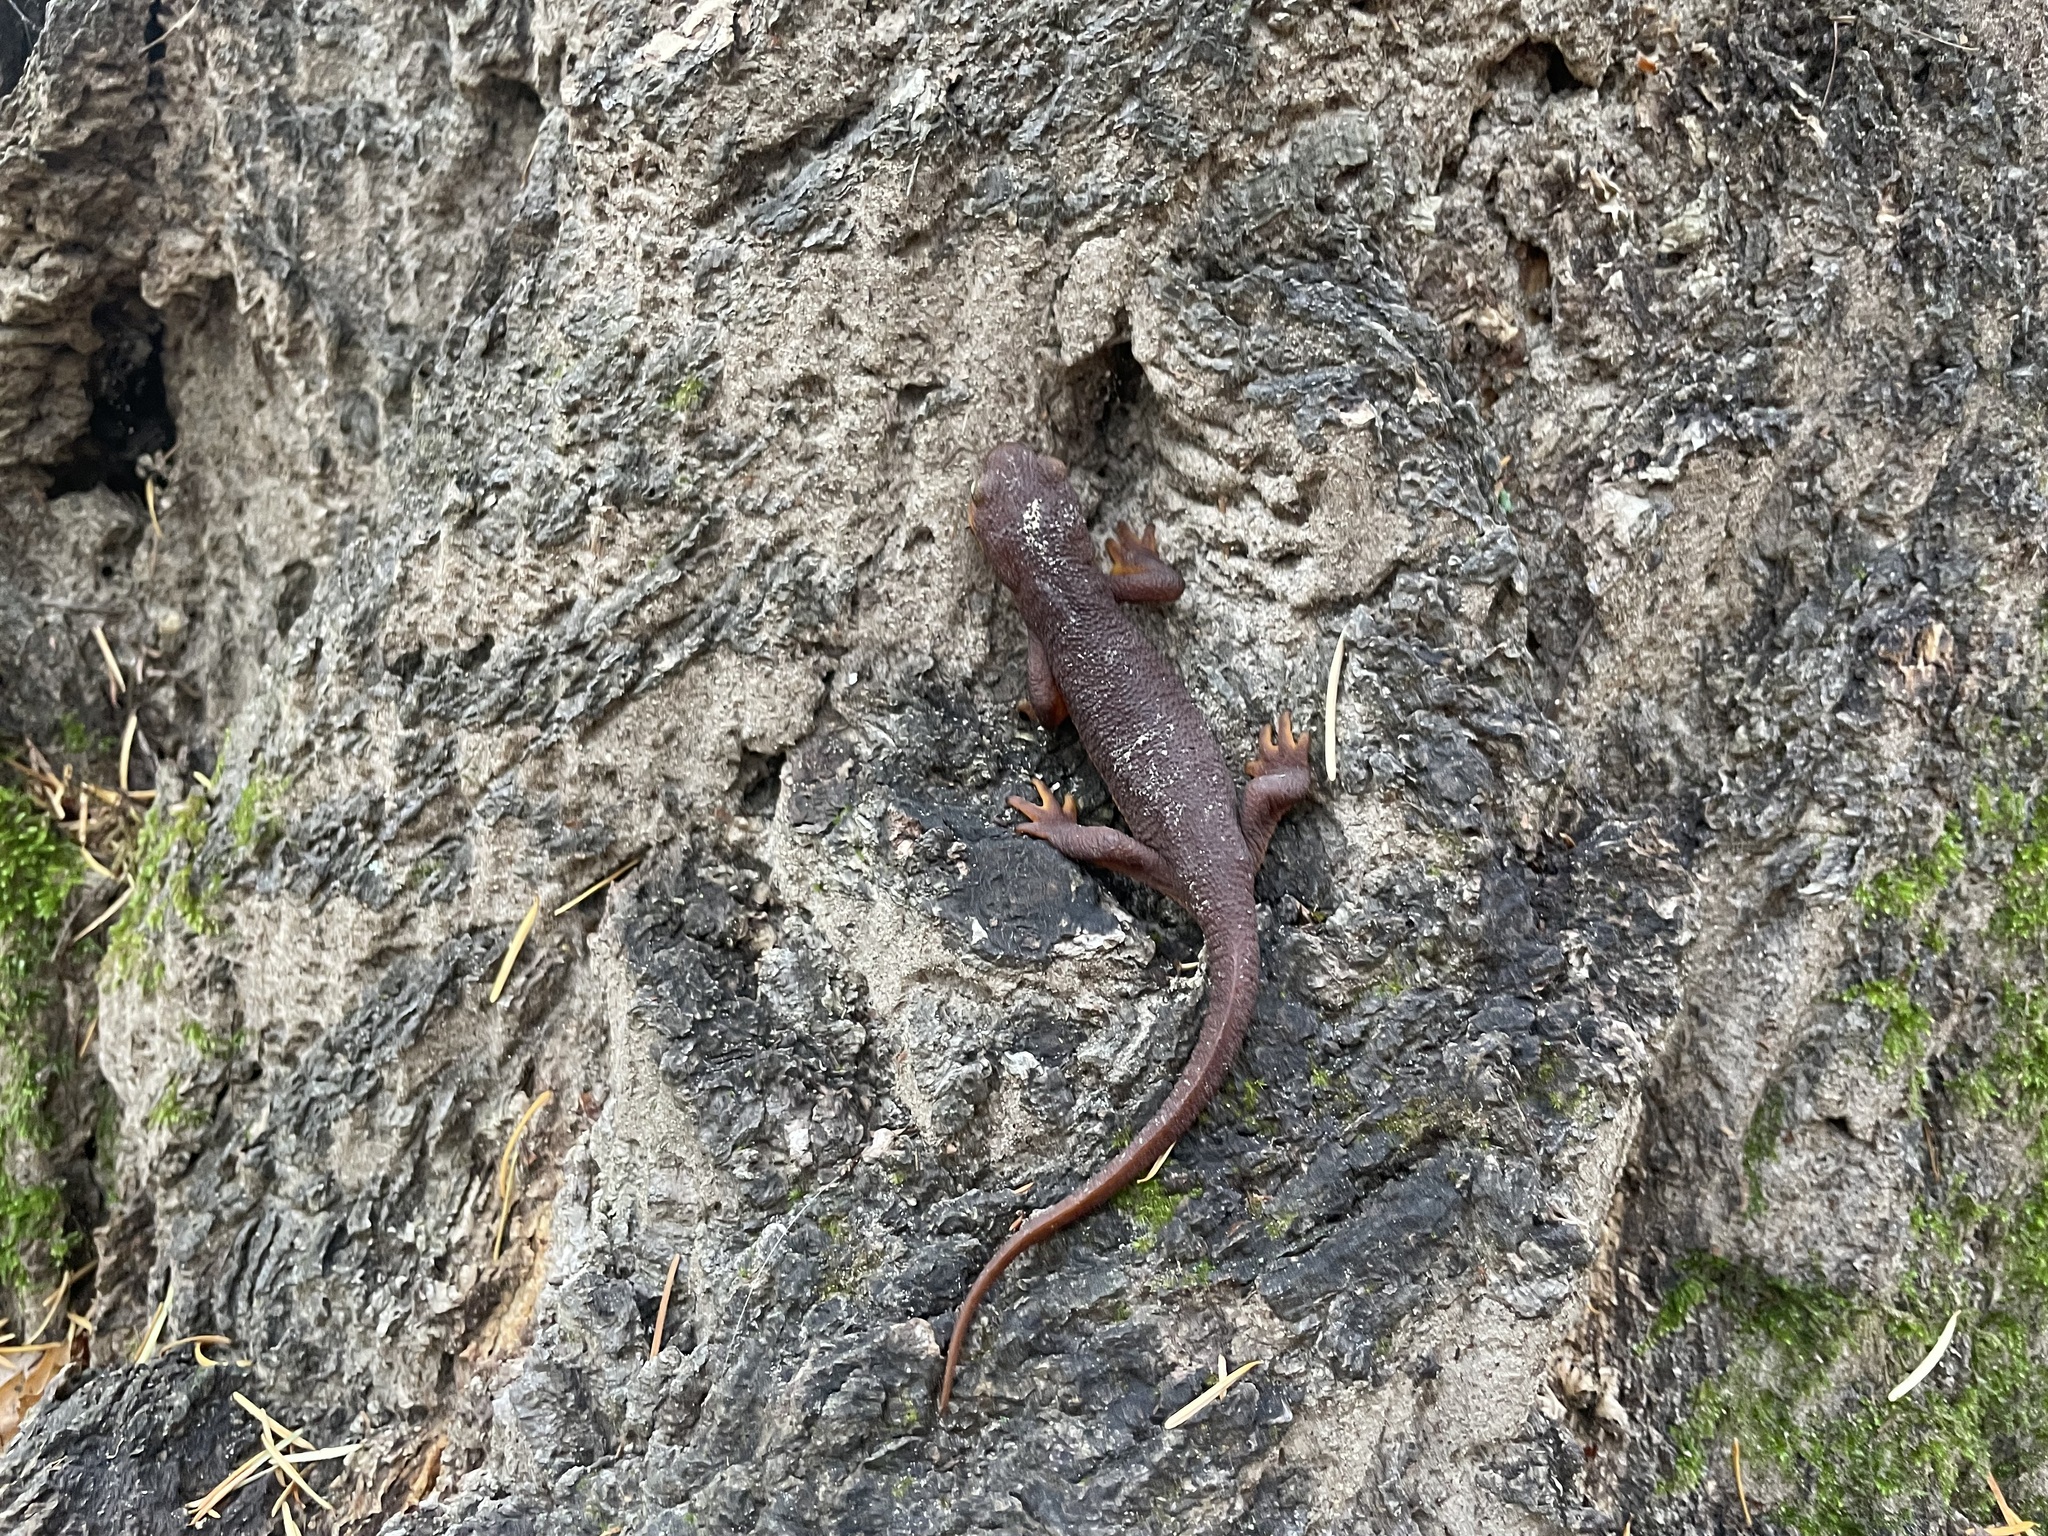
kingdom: Animalia
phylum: Chordata
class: Amphibia
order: Caudata
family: Salamandridae
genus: Taricha
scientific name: Taricha torosa
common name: California newt
